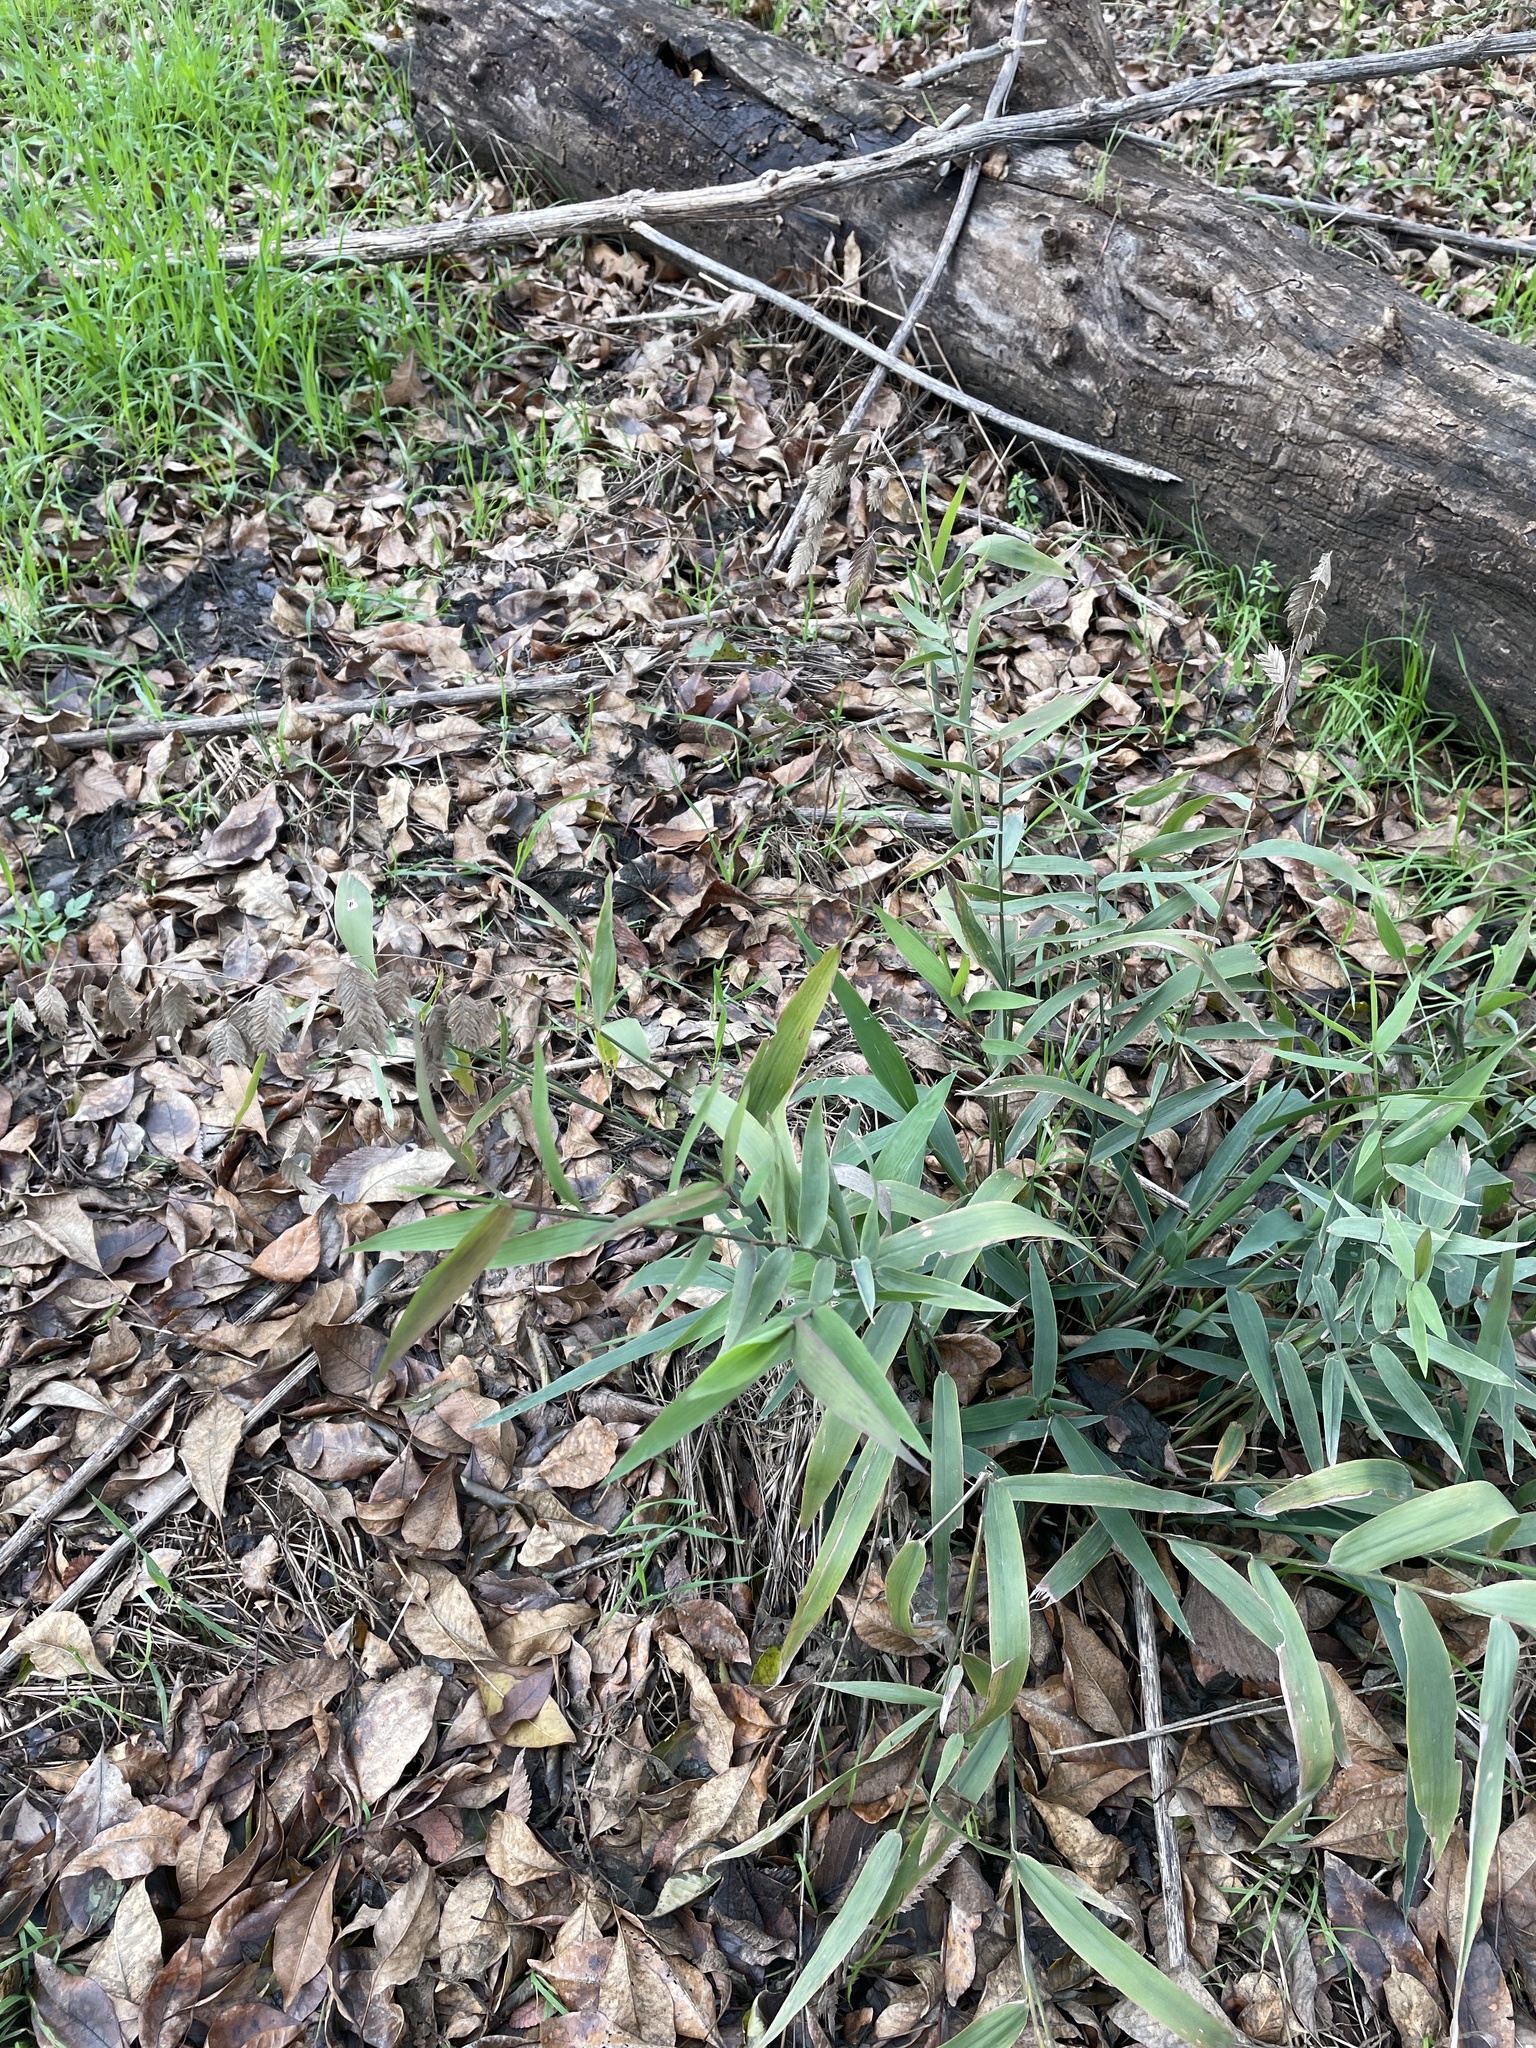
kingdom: Plantae
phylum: Tracheophyta
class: Liliopsida
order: Poales
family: Poaceae
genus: Chasmanthium
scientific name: Chasmanthium latifolium
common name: Broad-leaved chasmanthium
